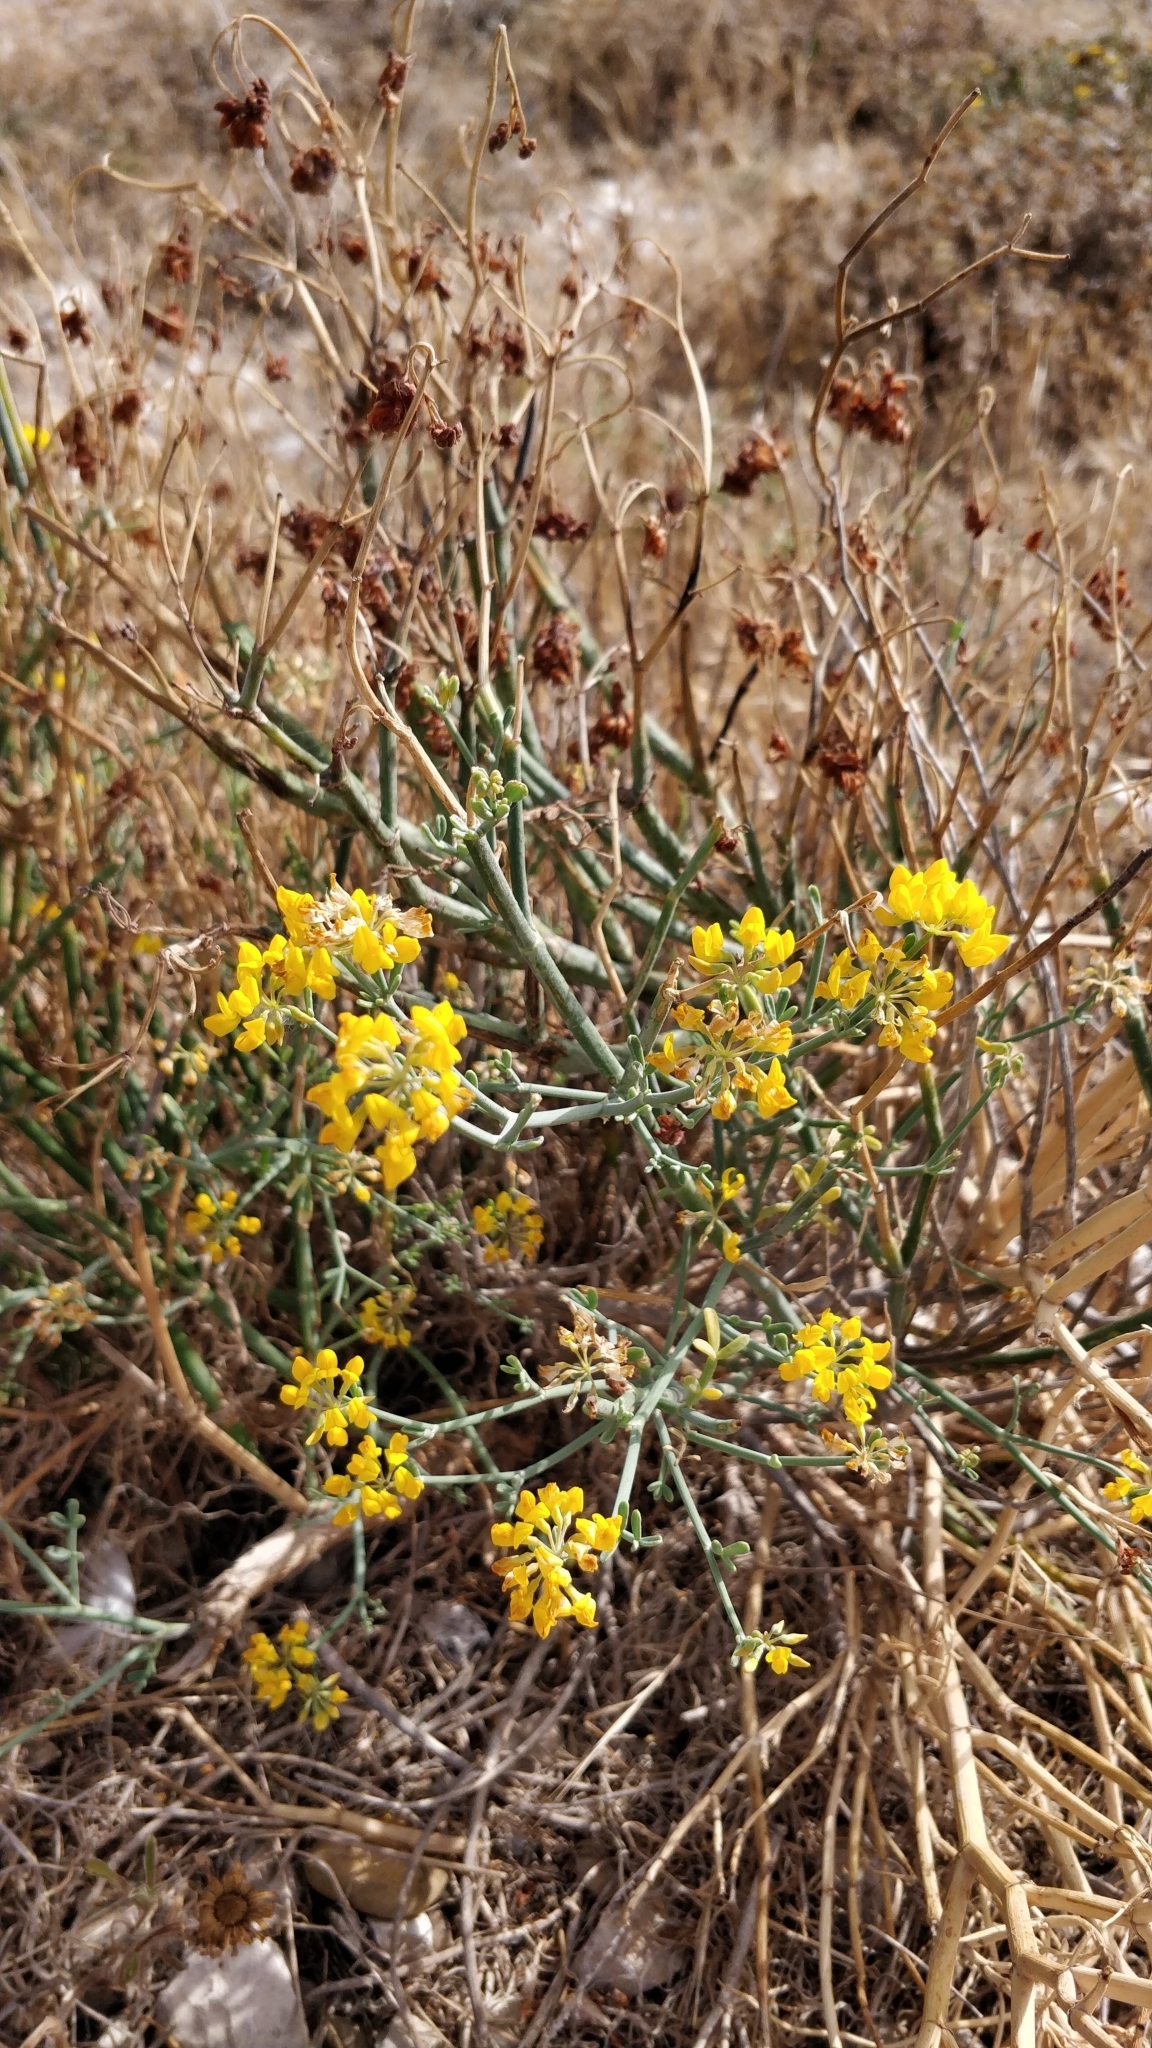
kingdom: Plantae
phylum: Tracheophyta
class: Magnoliopsida
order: Fabales
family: Fabaceae
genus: Coronilla
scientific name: Coronilla juncea
